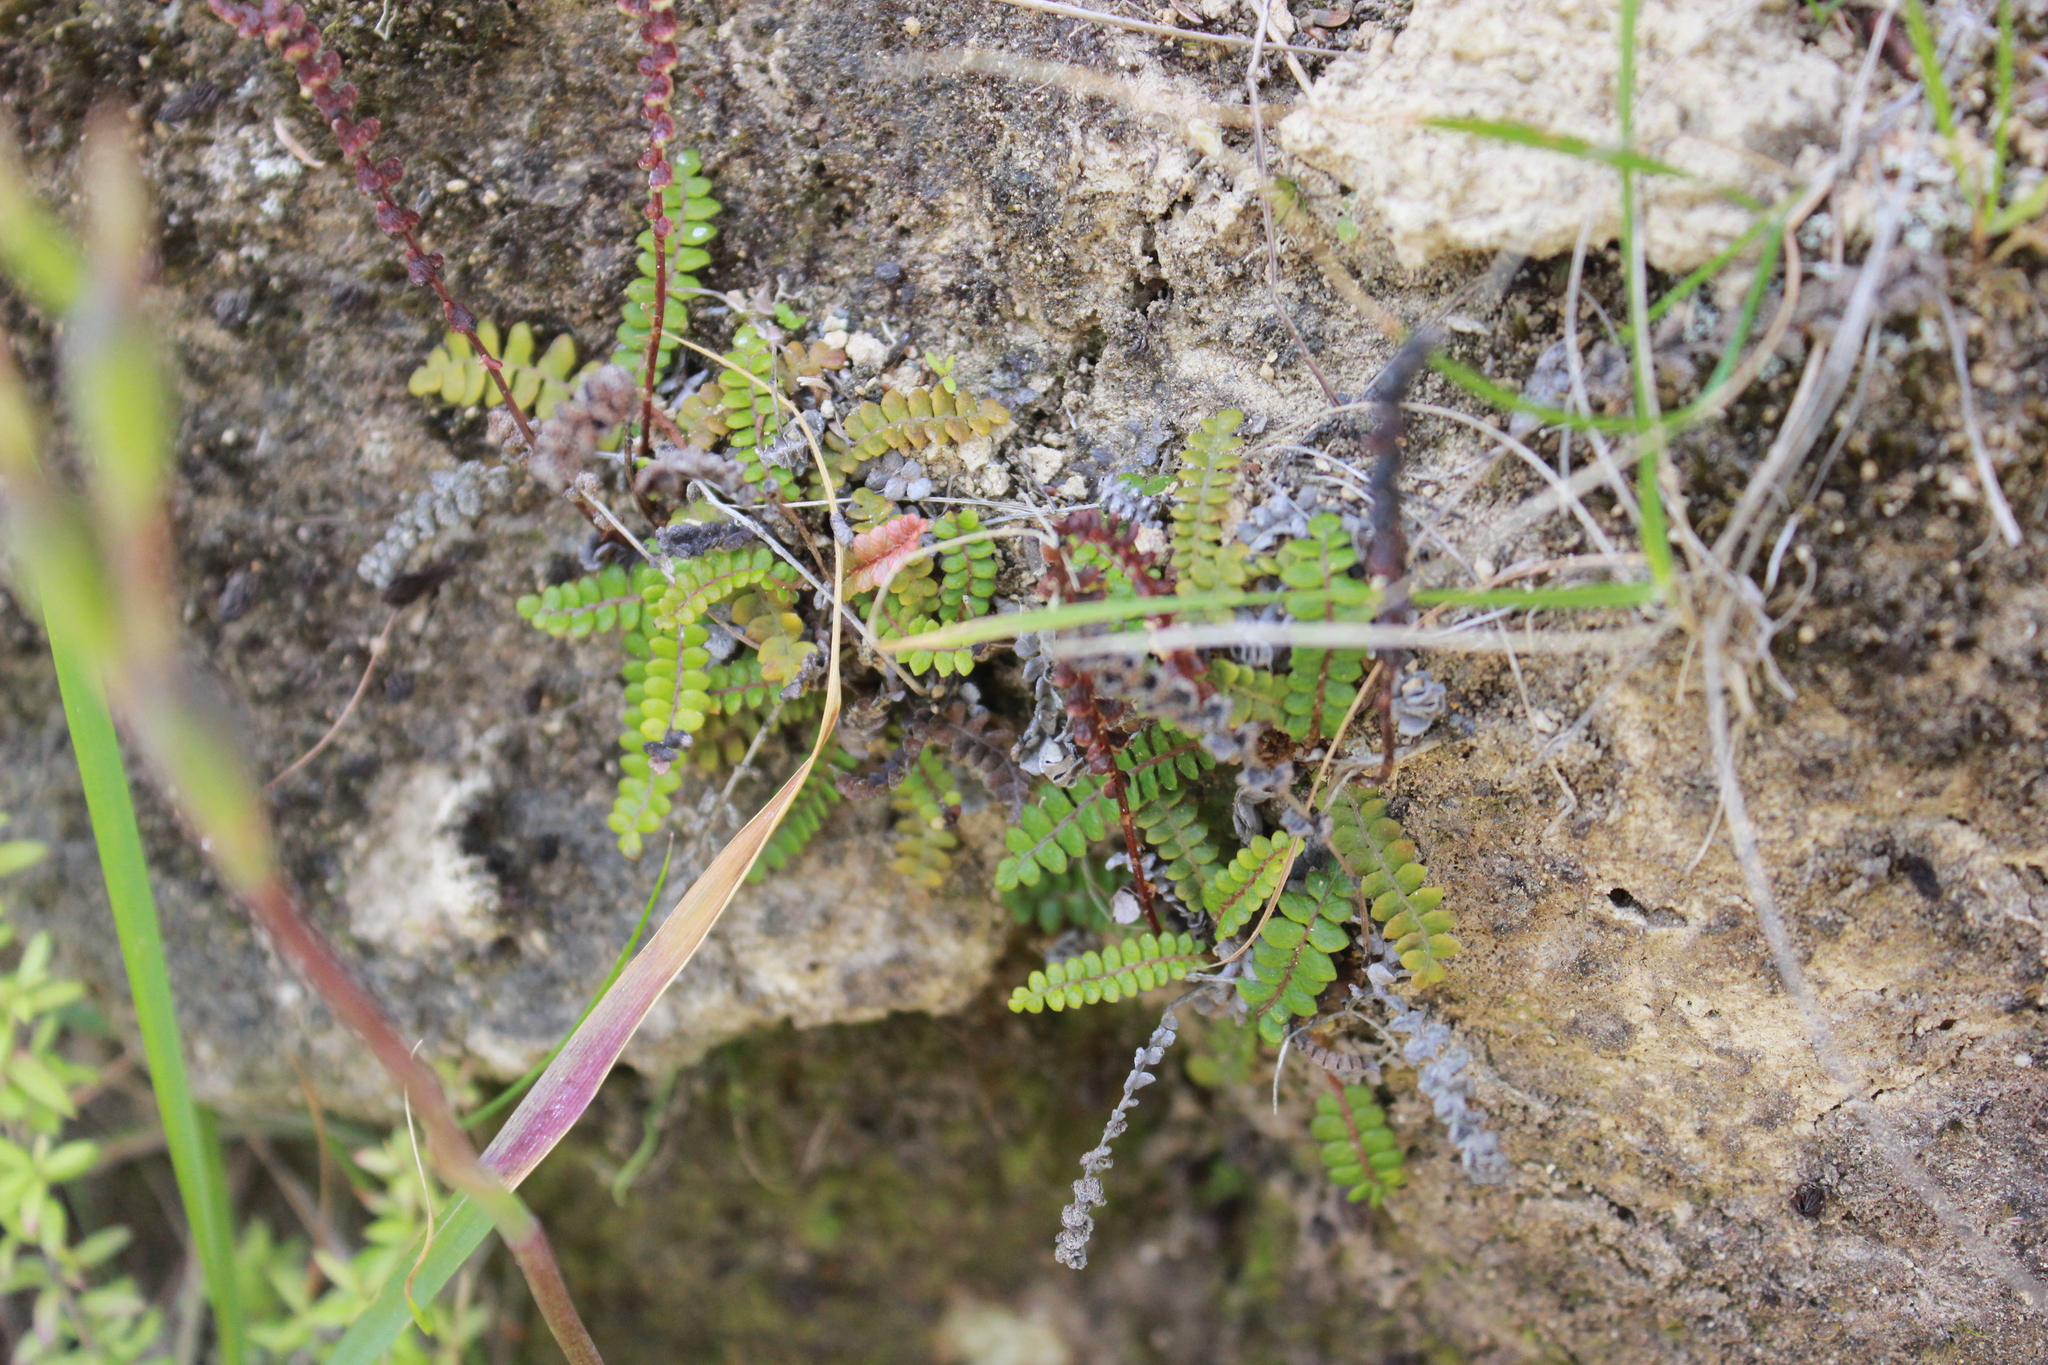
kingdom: Plantae
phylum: Tracheophyta
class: Polypodiopsida
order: Polypodiales
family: Blechnaceae
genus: Austroblechnum
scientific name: Austroblechnum penna-marina
